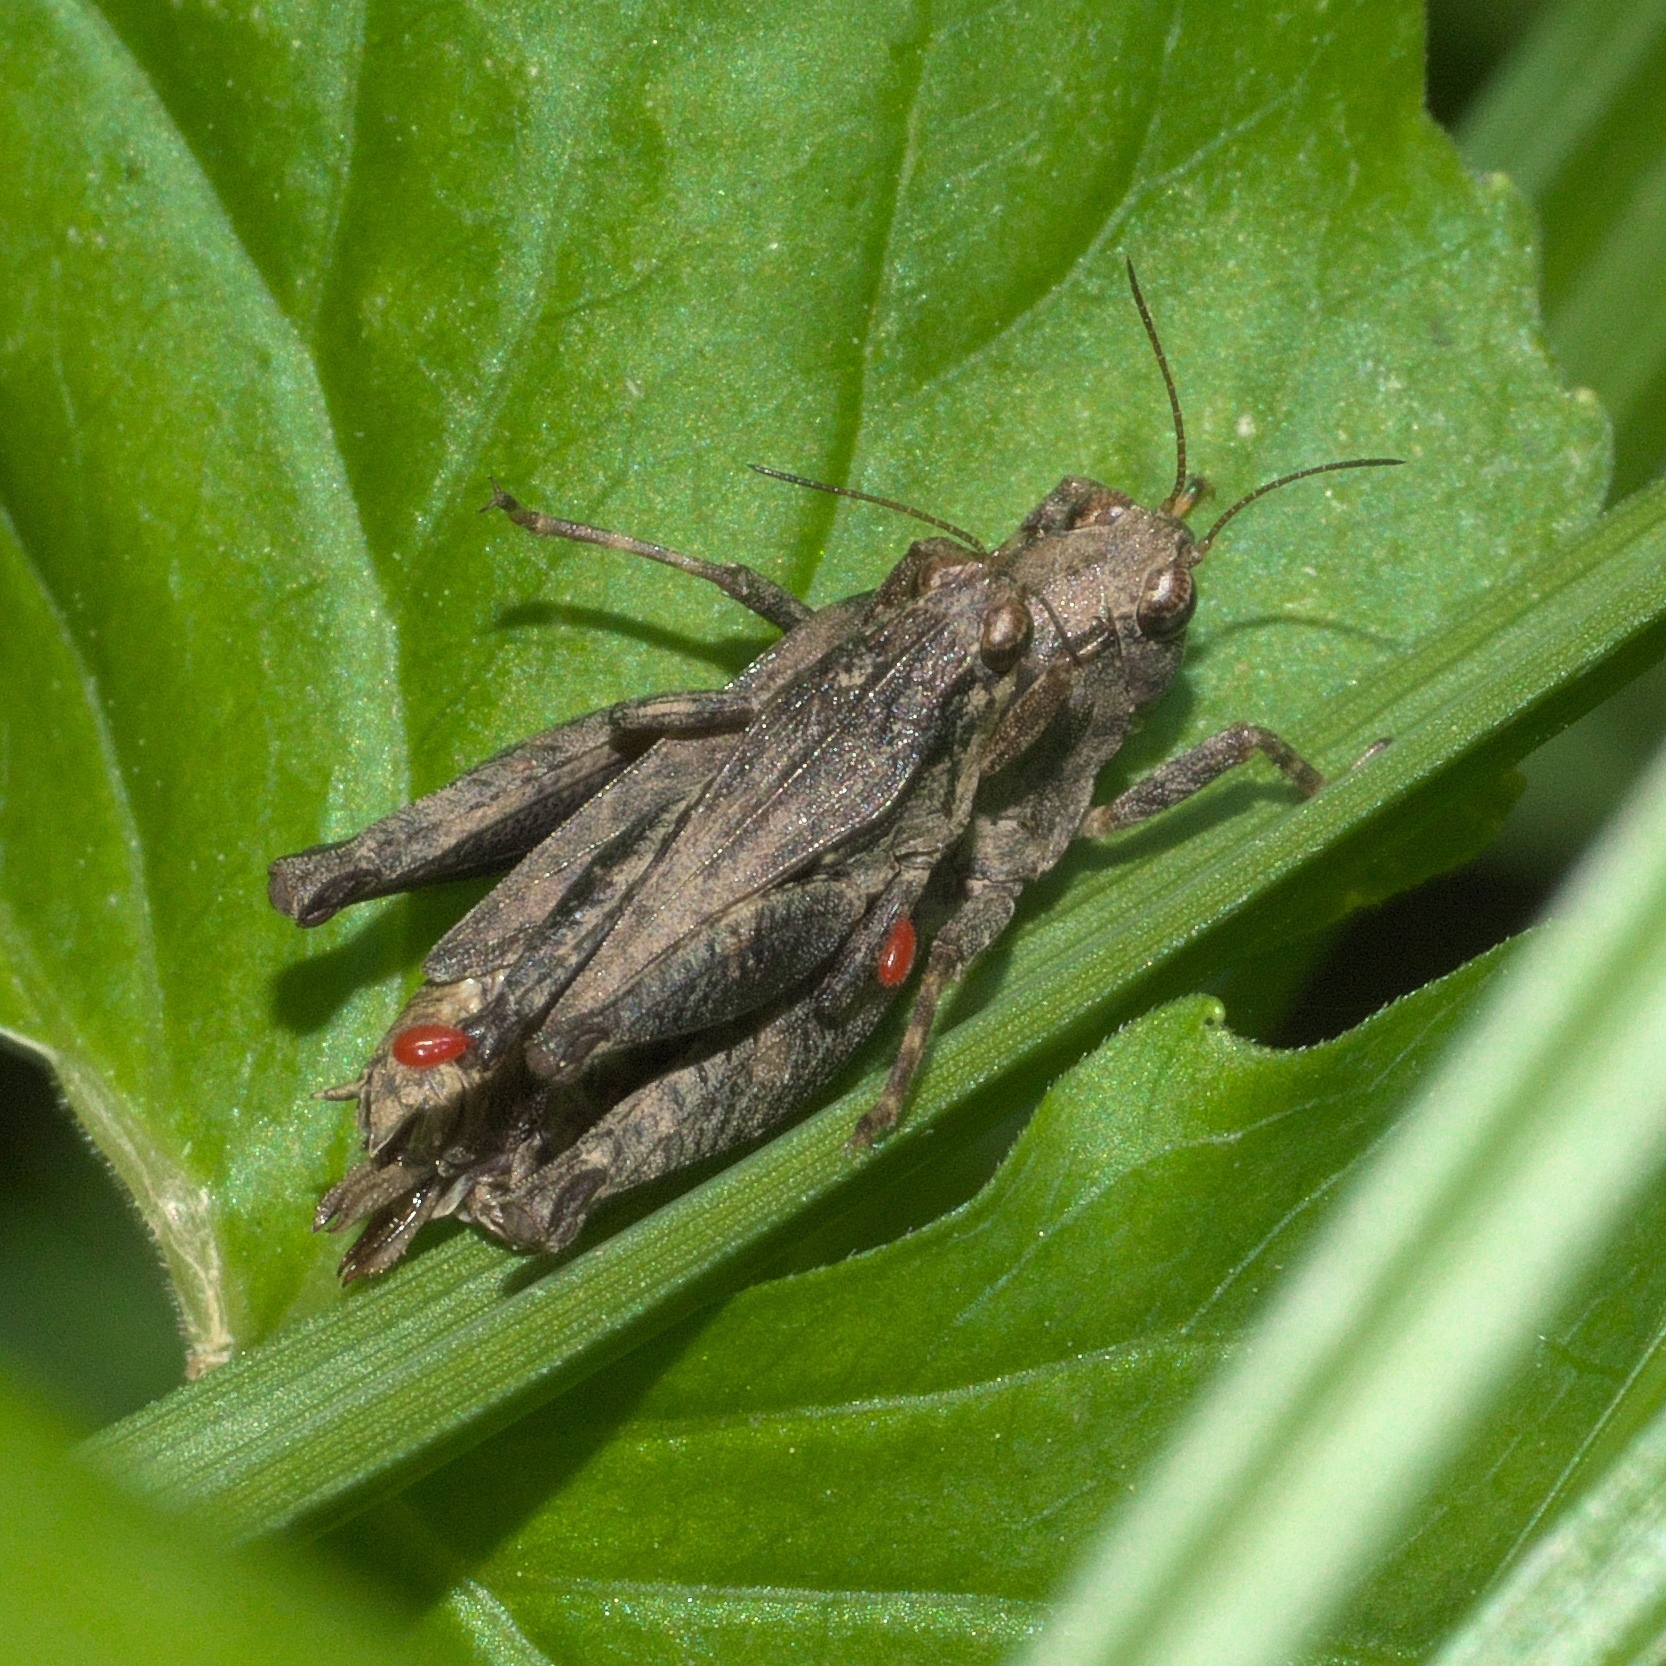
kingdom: Animalia
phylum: Arthropoda
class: Insecta
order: Orthoptera
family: Tetrigidae
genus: Tettigidea
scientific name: Tettigidea laterale
